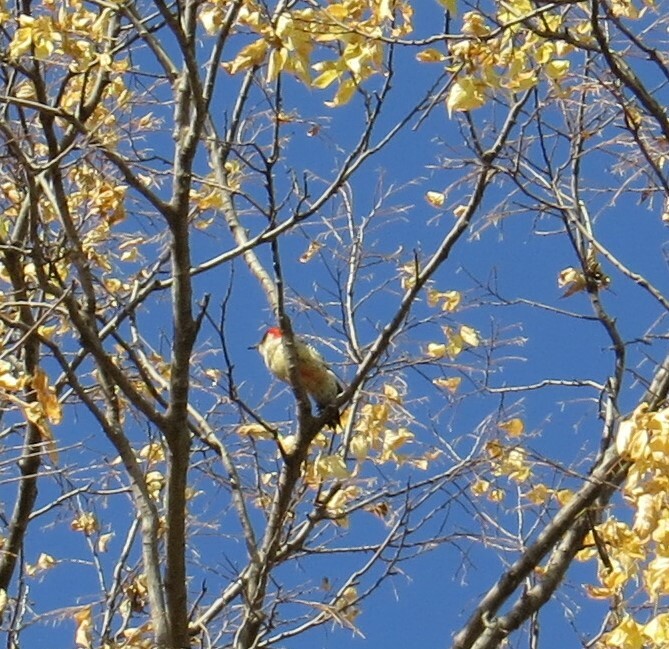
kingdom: Animalia
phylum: Chordata
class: Aves
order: Piciformes
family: Picidae
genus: Melanerpes
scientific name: Melanerpes carolinus
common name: Red-bellied woodpecker
